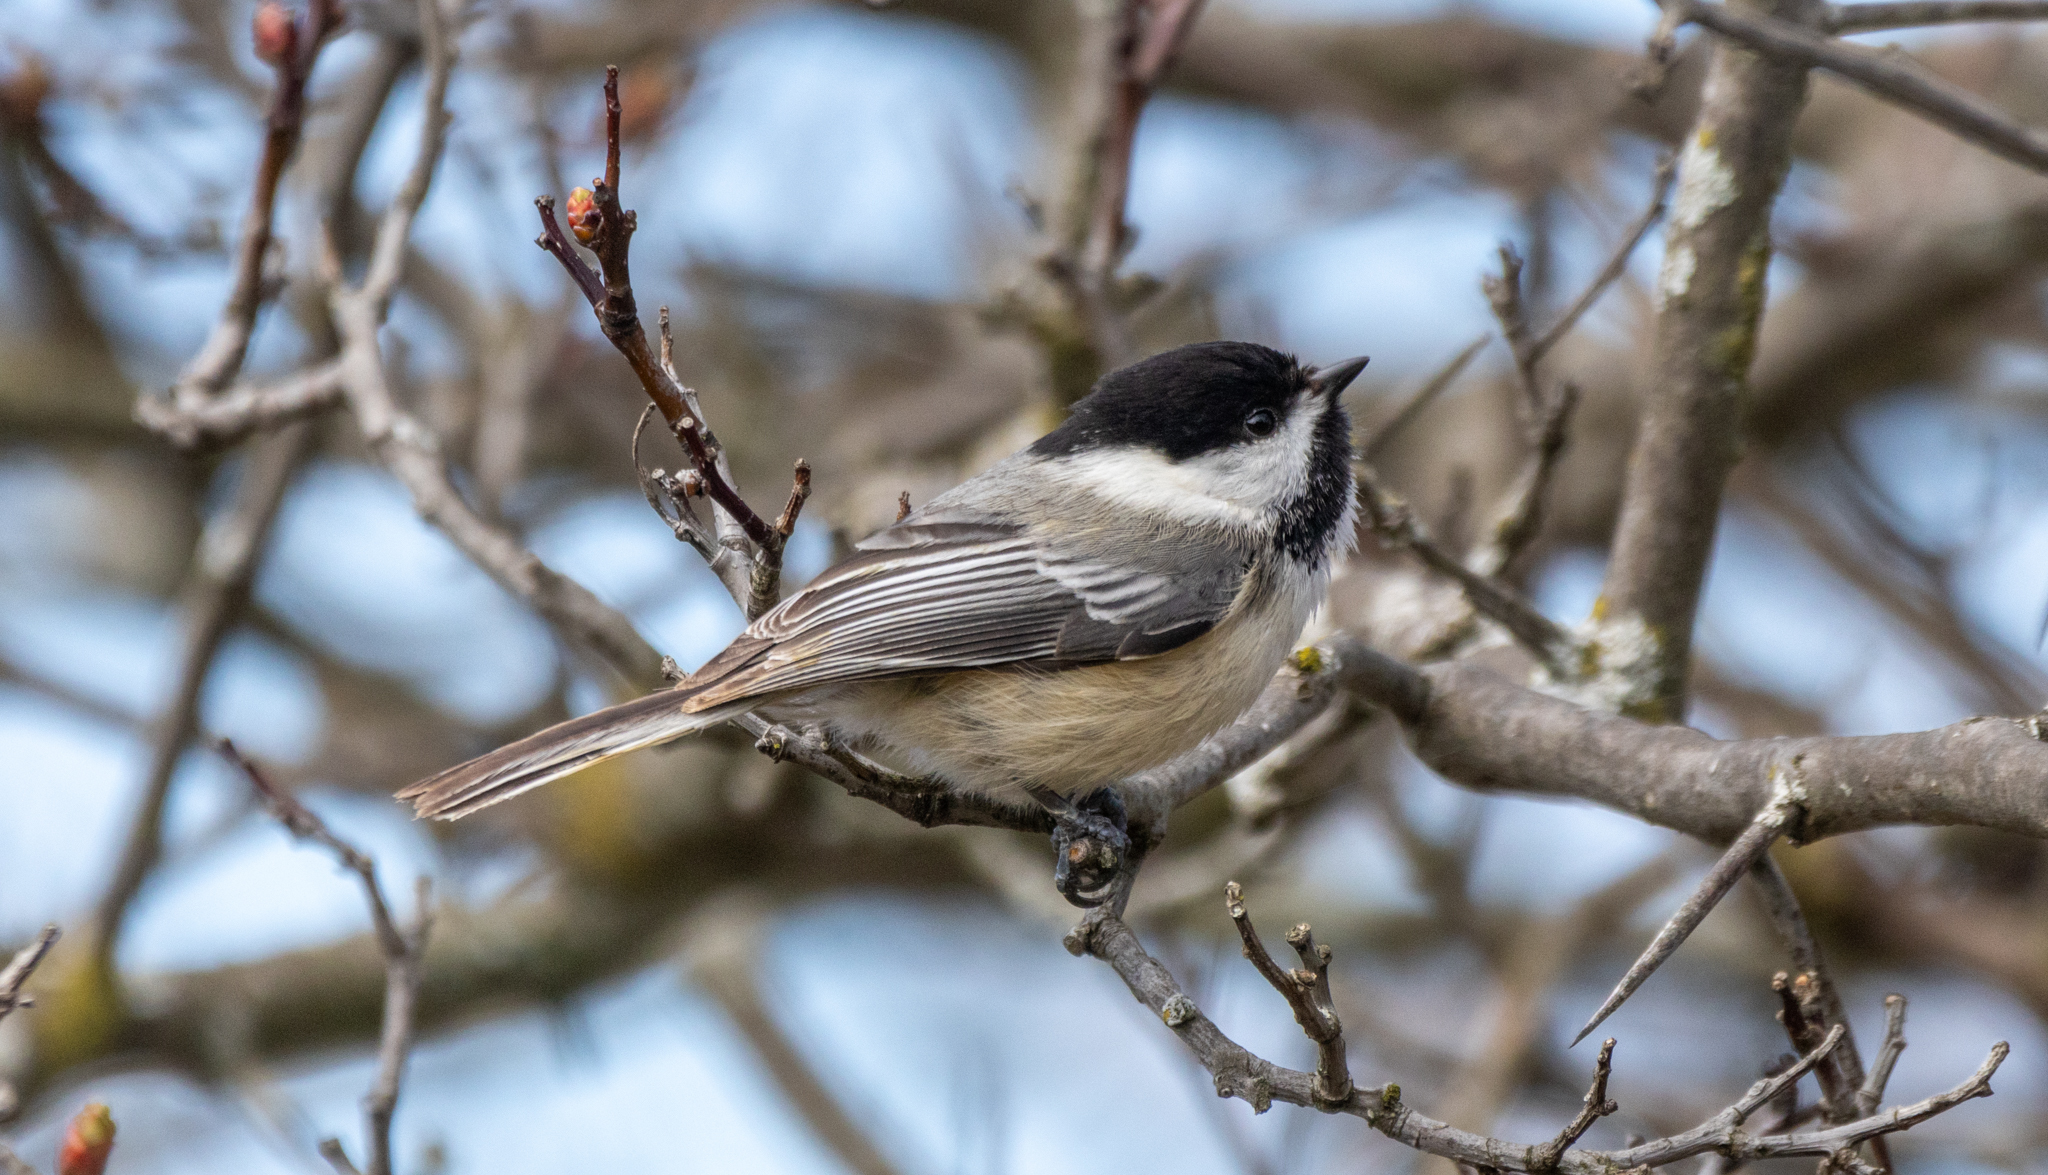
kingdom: Animalia
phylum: Chordata
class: Aves
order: Passeriformes
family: Paridae
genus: Poecile
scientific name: Poecile atricapillus
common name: Black-capped chickadee
